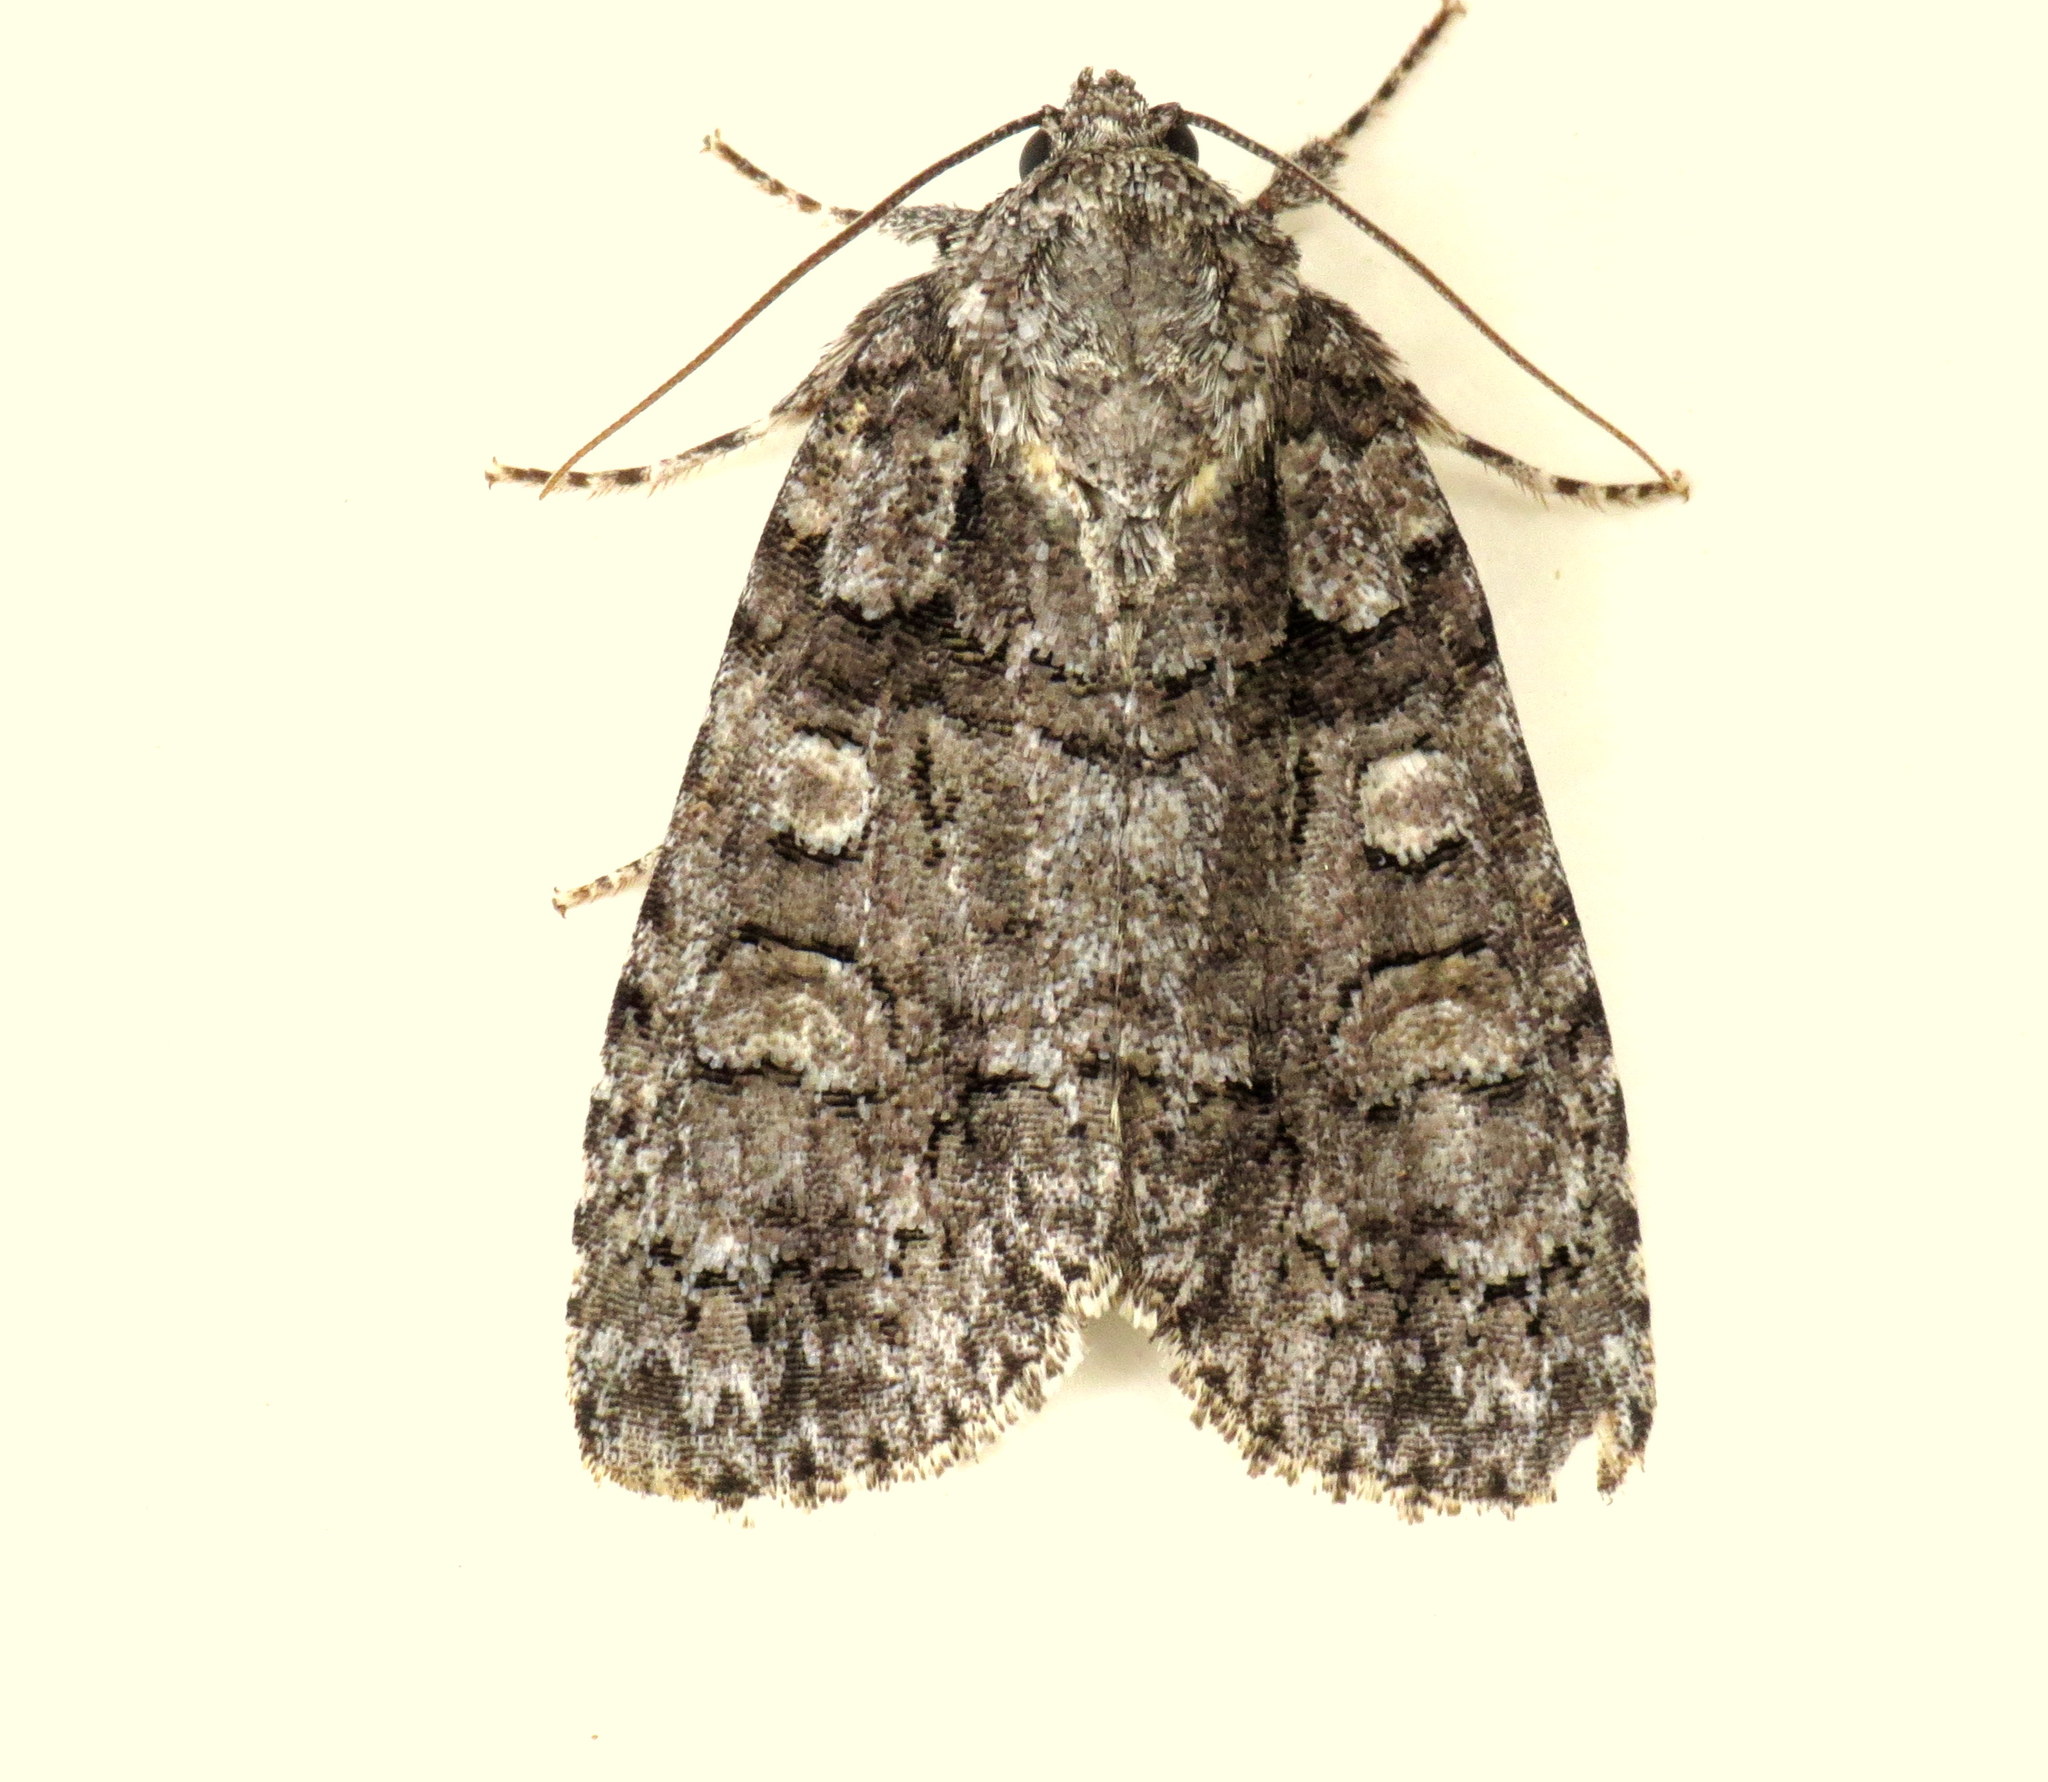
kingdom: Animalia
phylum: Arthropoda
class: Insecta
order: Lepidoptera
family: Noctuidae
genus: Acronicta
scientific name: Acronicta tristis
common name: Sad dagger
